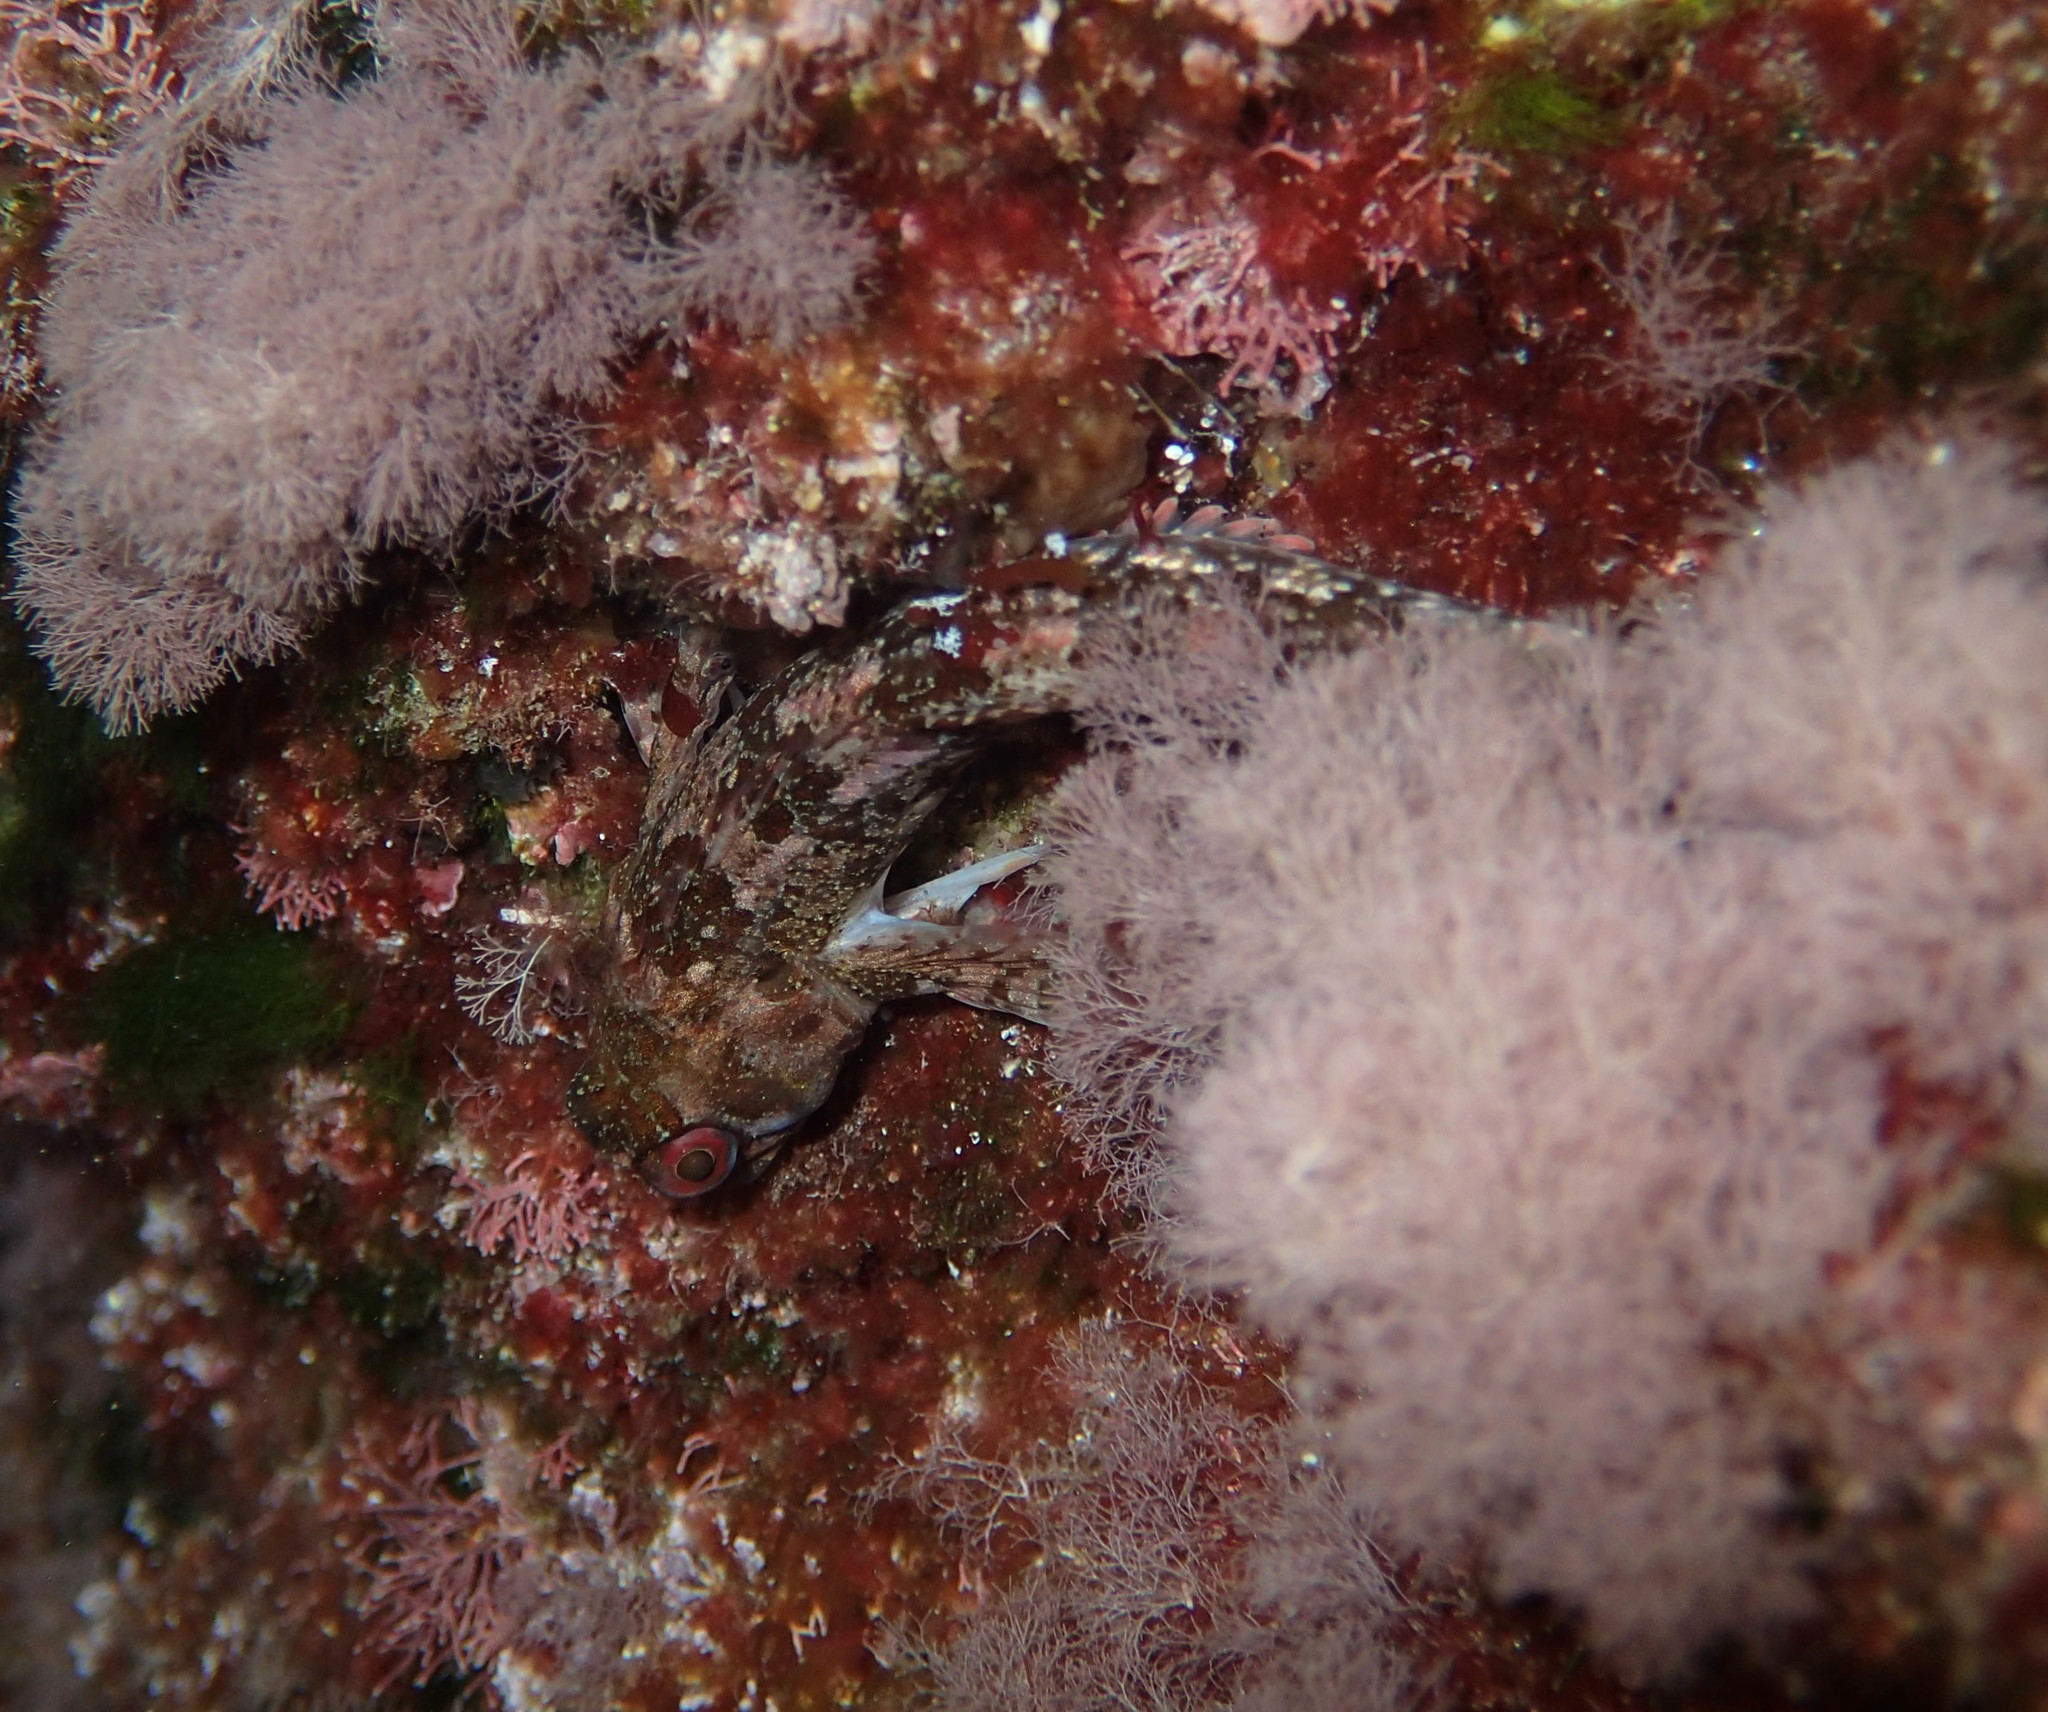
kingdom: Animalia
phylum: Chordata
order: Perciformes
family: Blenniidae
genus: Lipophrys
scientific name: Lipophrys trigloides
